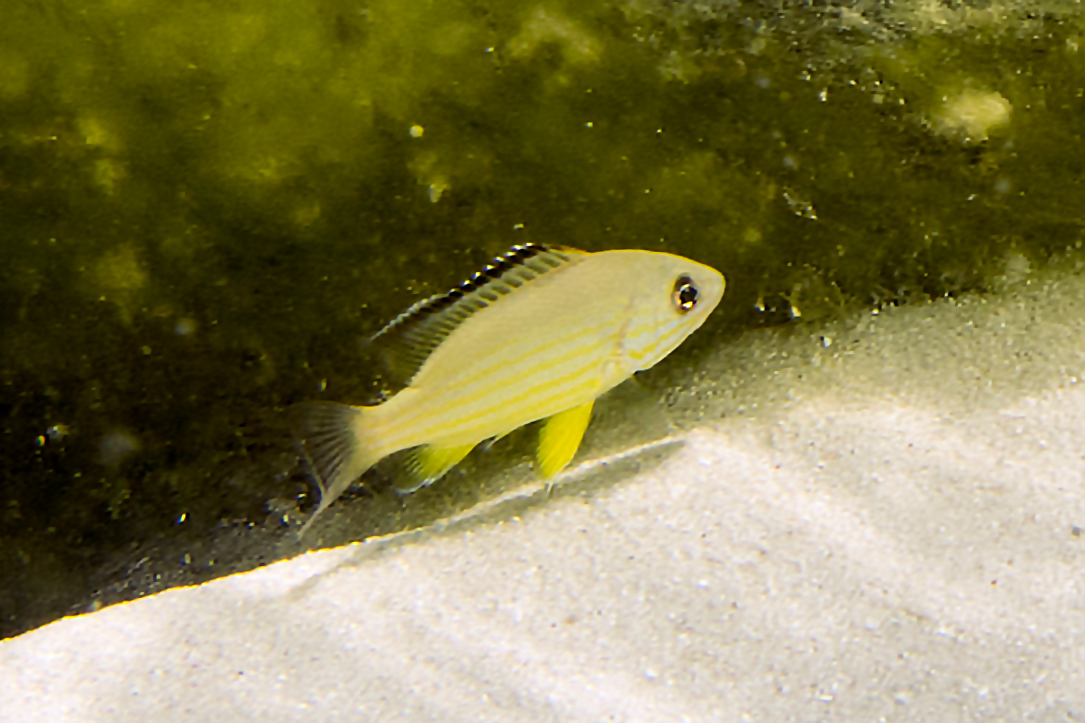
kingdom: Animalia
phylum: Chordata
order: Perciformes
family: Lutjanidae
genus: Lutjanus
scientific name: Lutjanus fulvus
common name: Blacktail snapper
